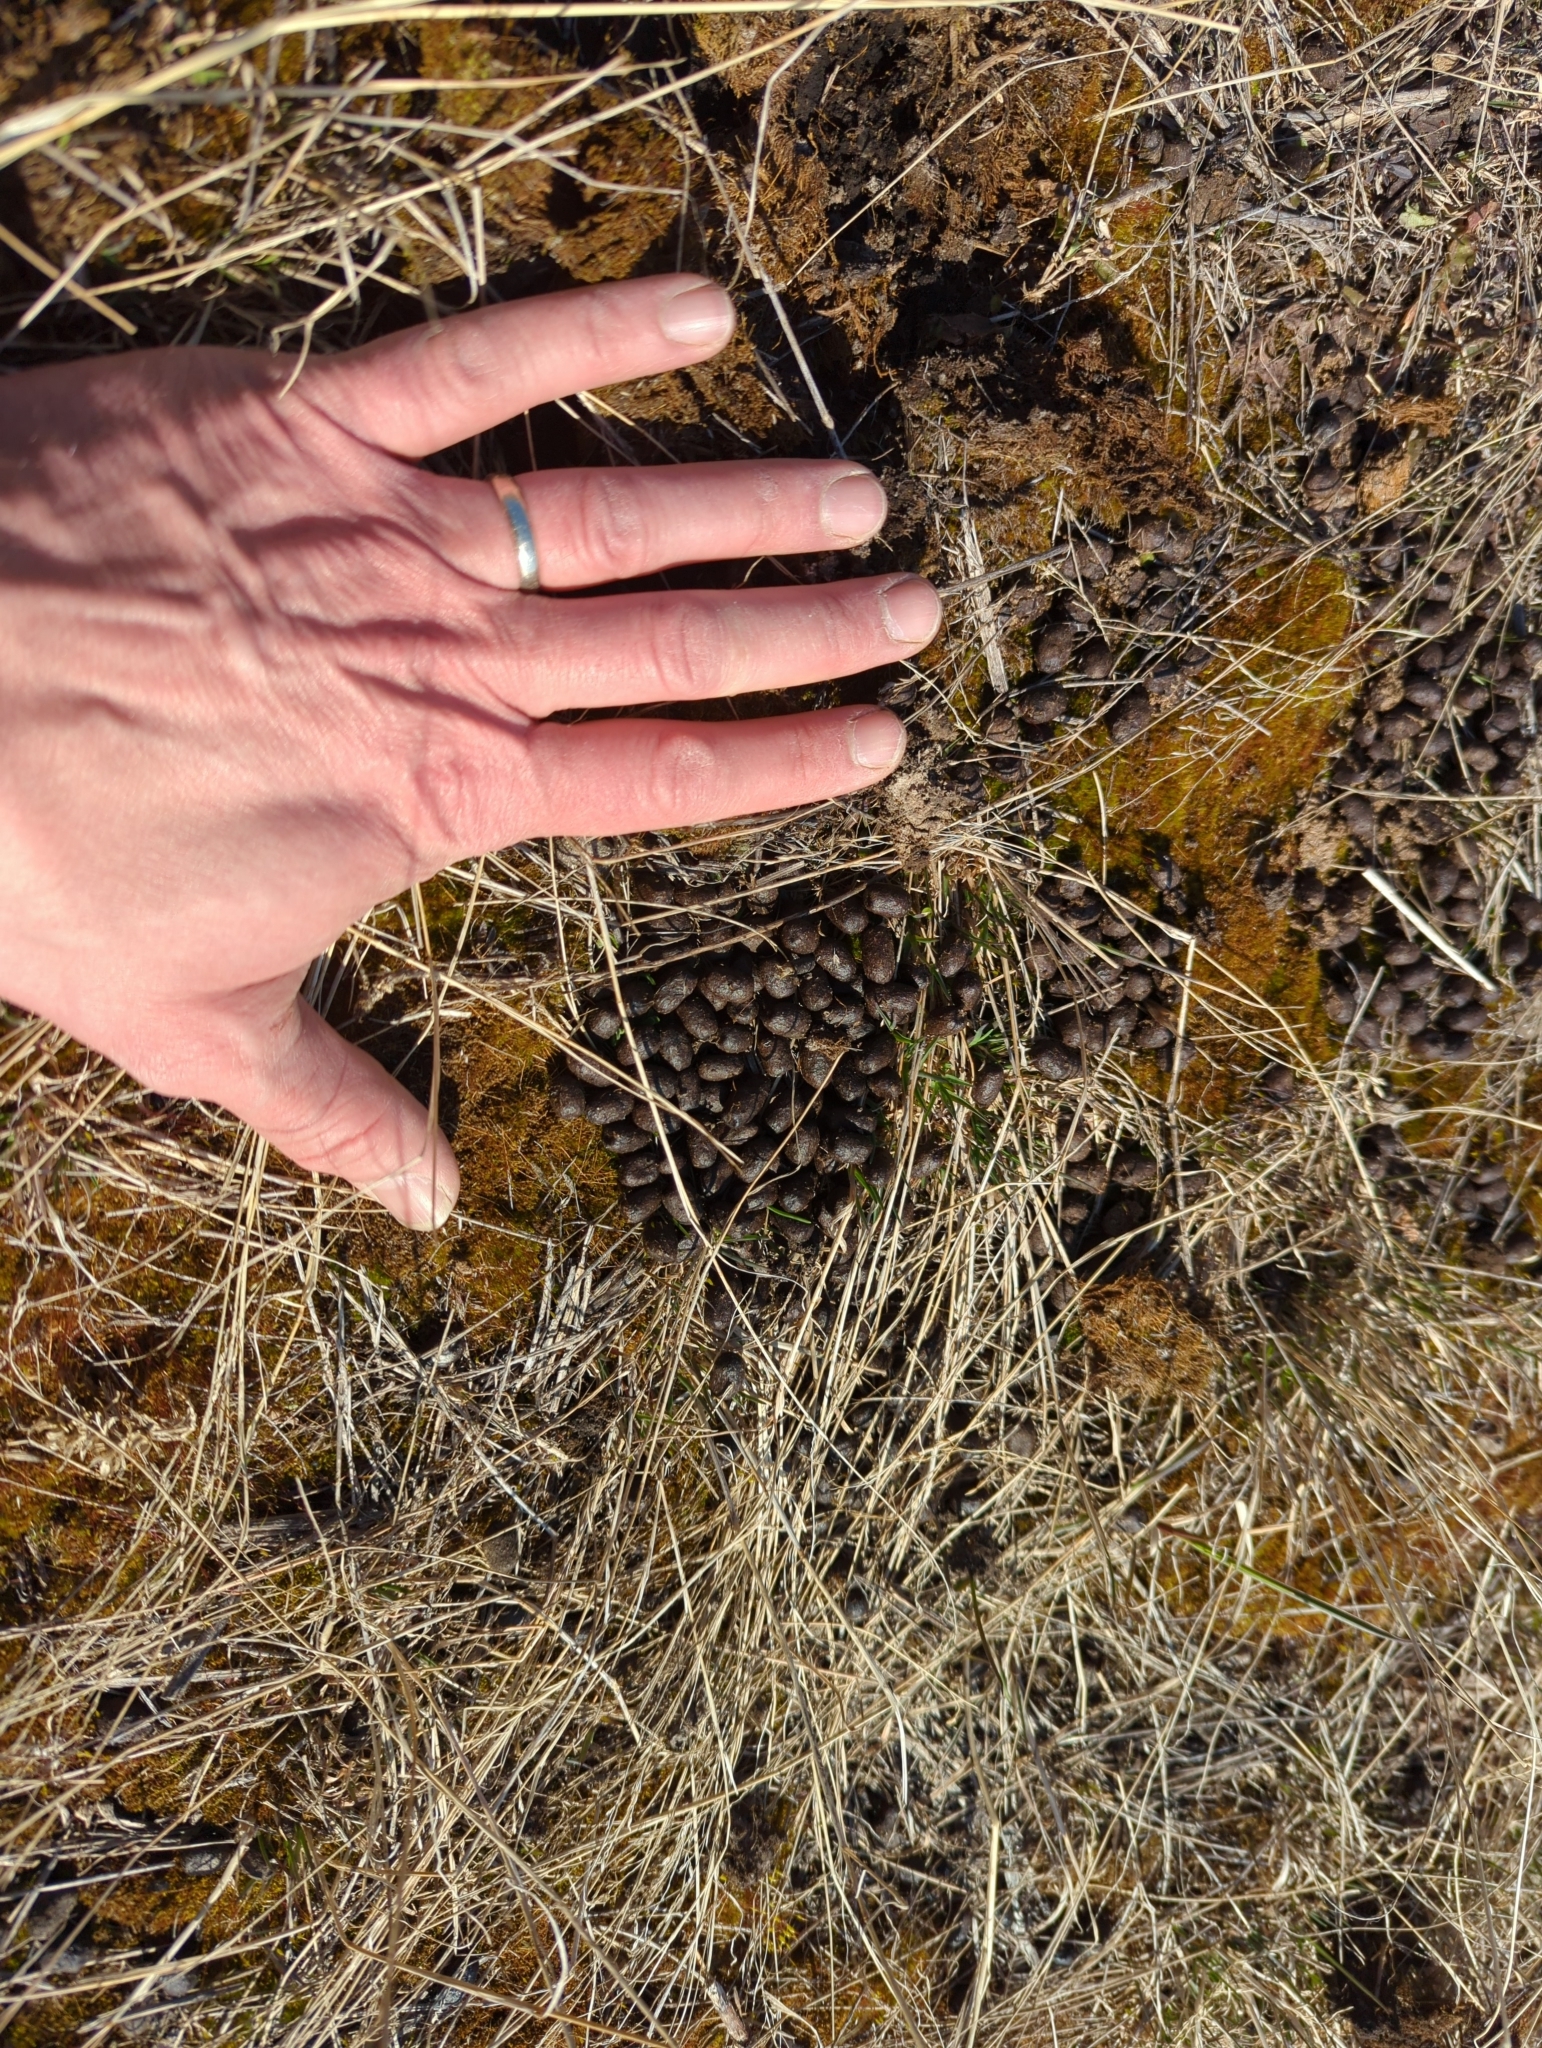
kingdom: Animalia
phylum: Chordata
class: Mammalia
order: Artiodactyla
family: Bovidae
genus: Ovis
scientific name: Ovis dalli
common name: Dall's sheep
